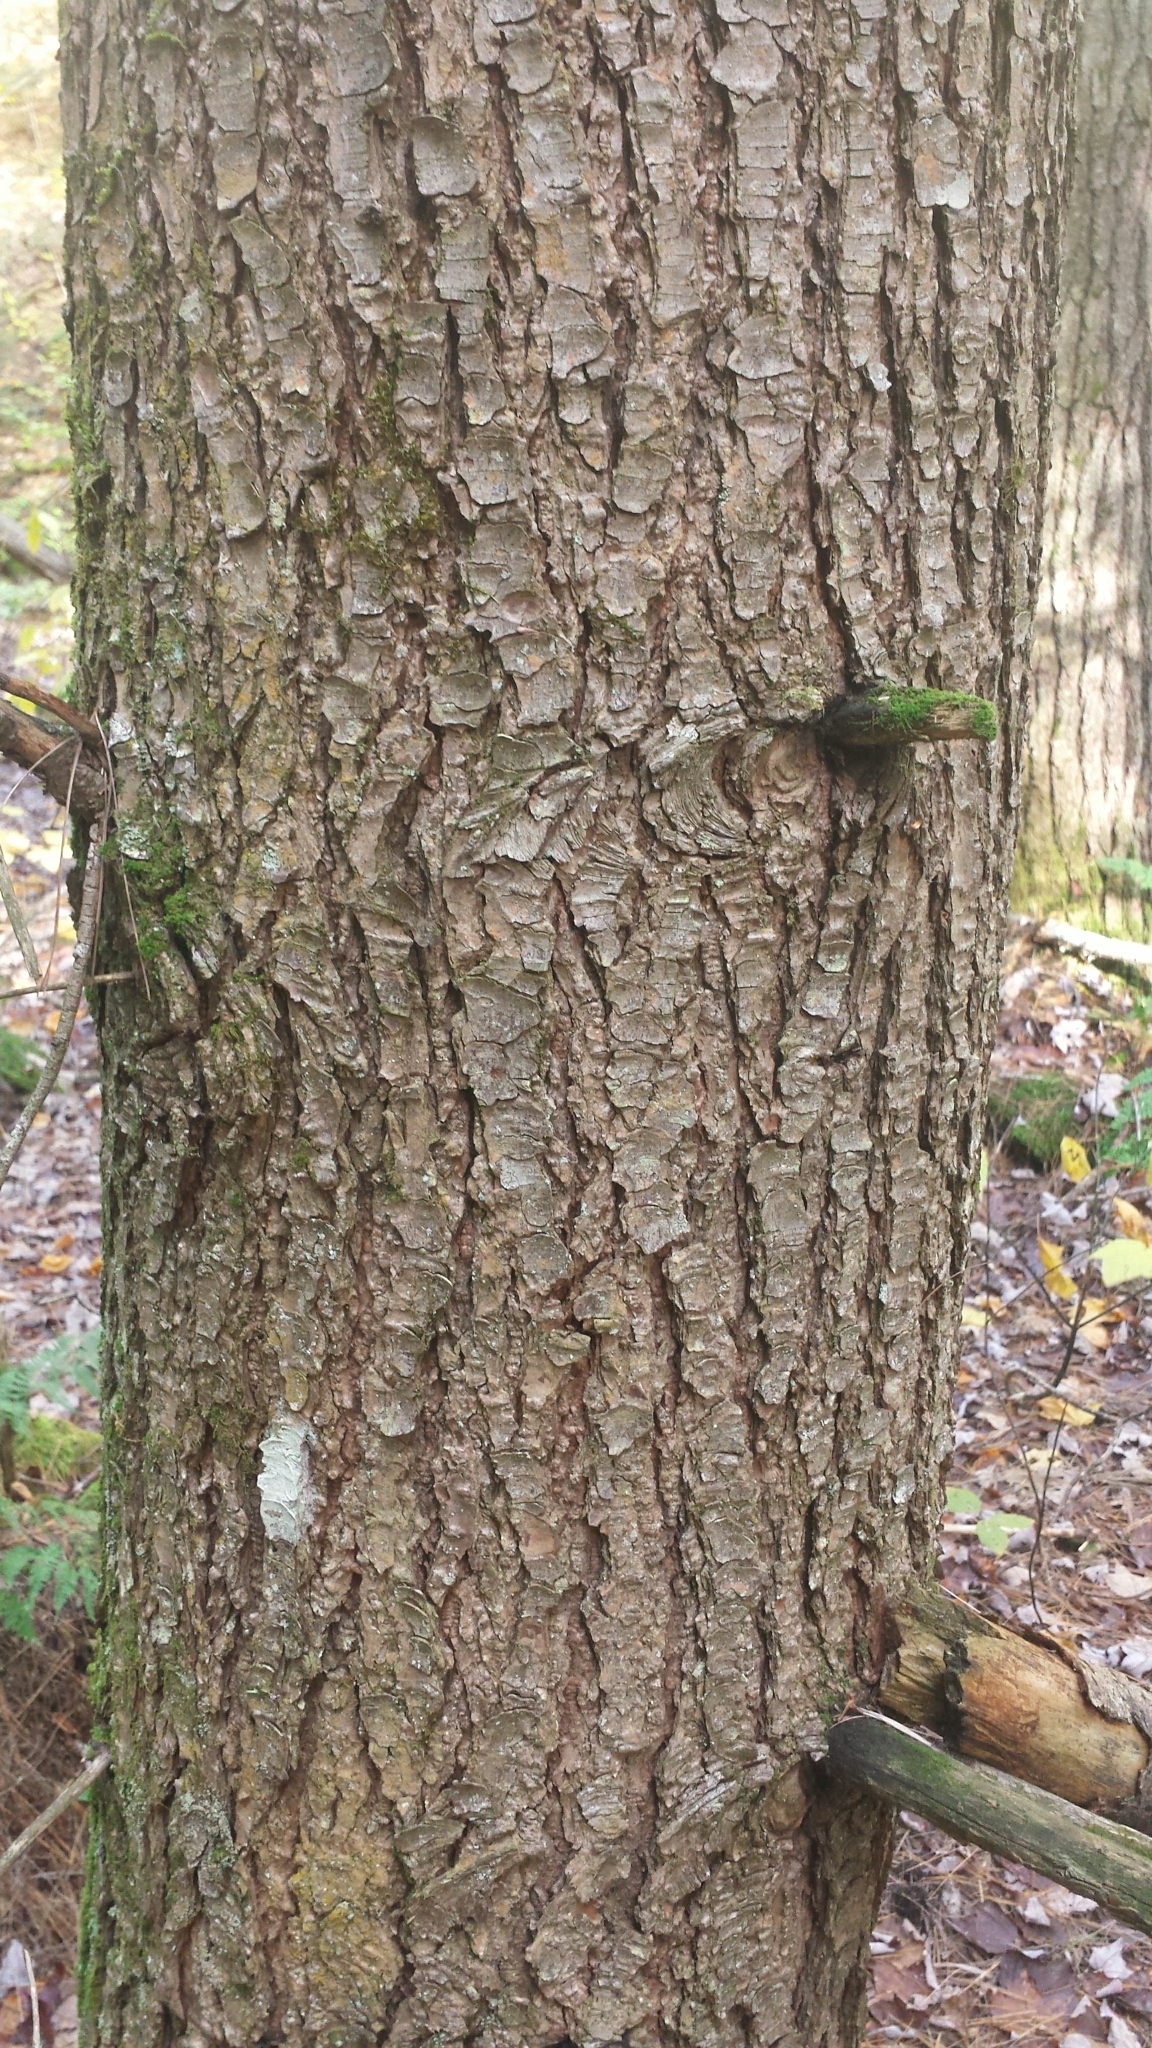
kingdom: Plantae
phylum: Tracheophyta
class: Pinopsida
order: Pinales
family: Pinaceae
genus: Tsuga
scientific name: Tsuga canadensis
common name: Eastern hemlock
